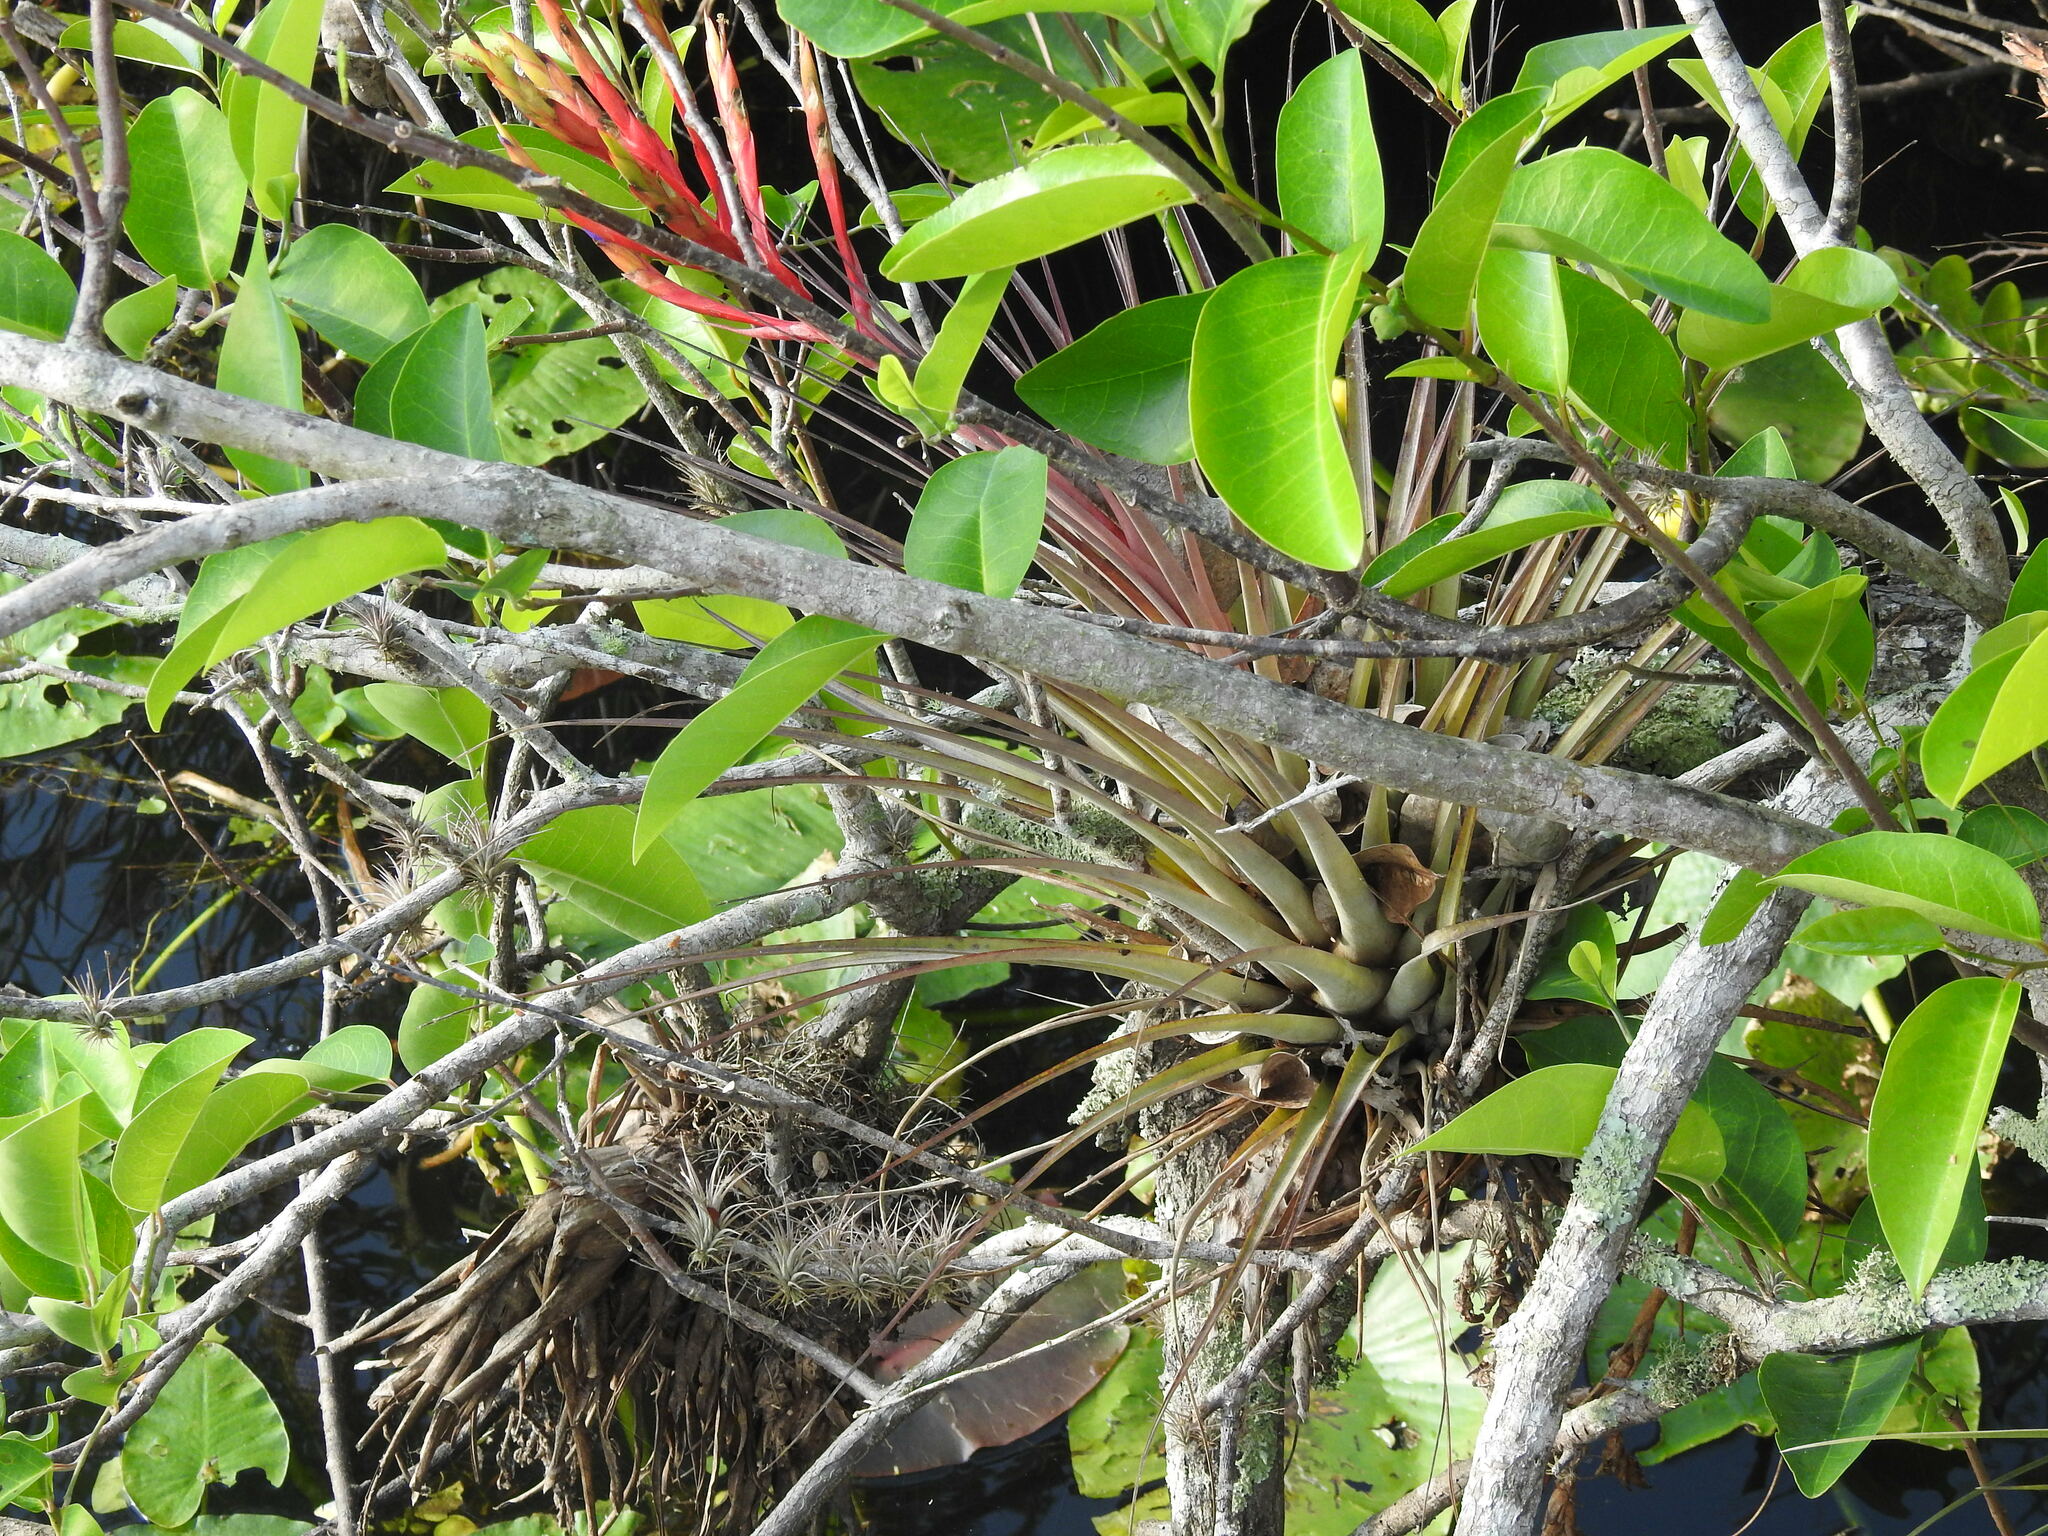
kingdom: Plantae
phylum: Tracheophyta
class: Liliopsida
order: Poales
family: Bromeliaceae
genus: Tillandsia
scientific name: Tillandsia fasciculata
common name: Giant airplant
